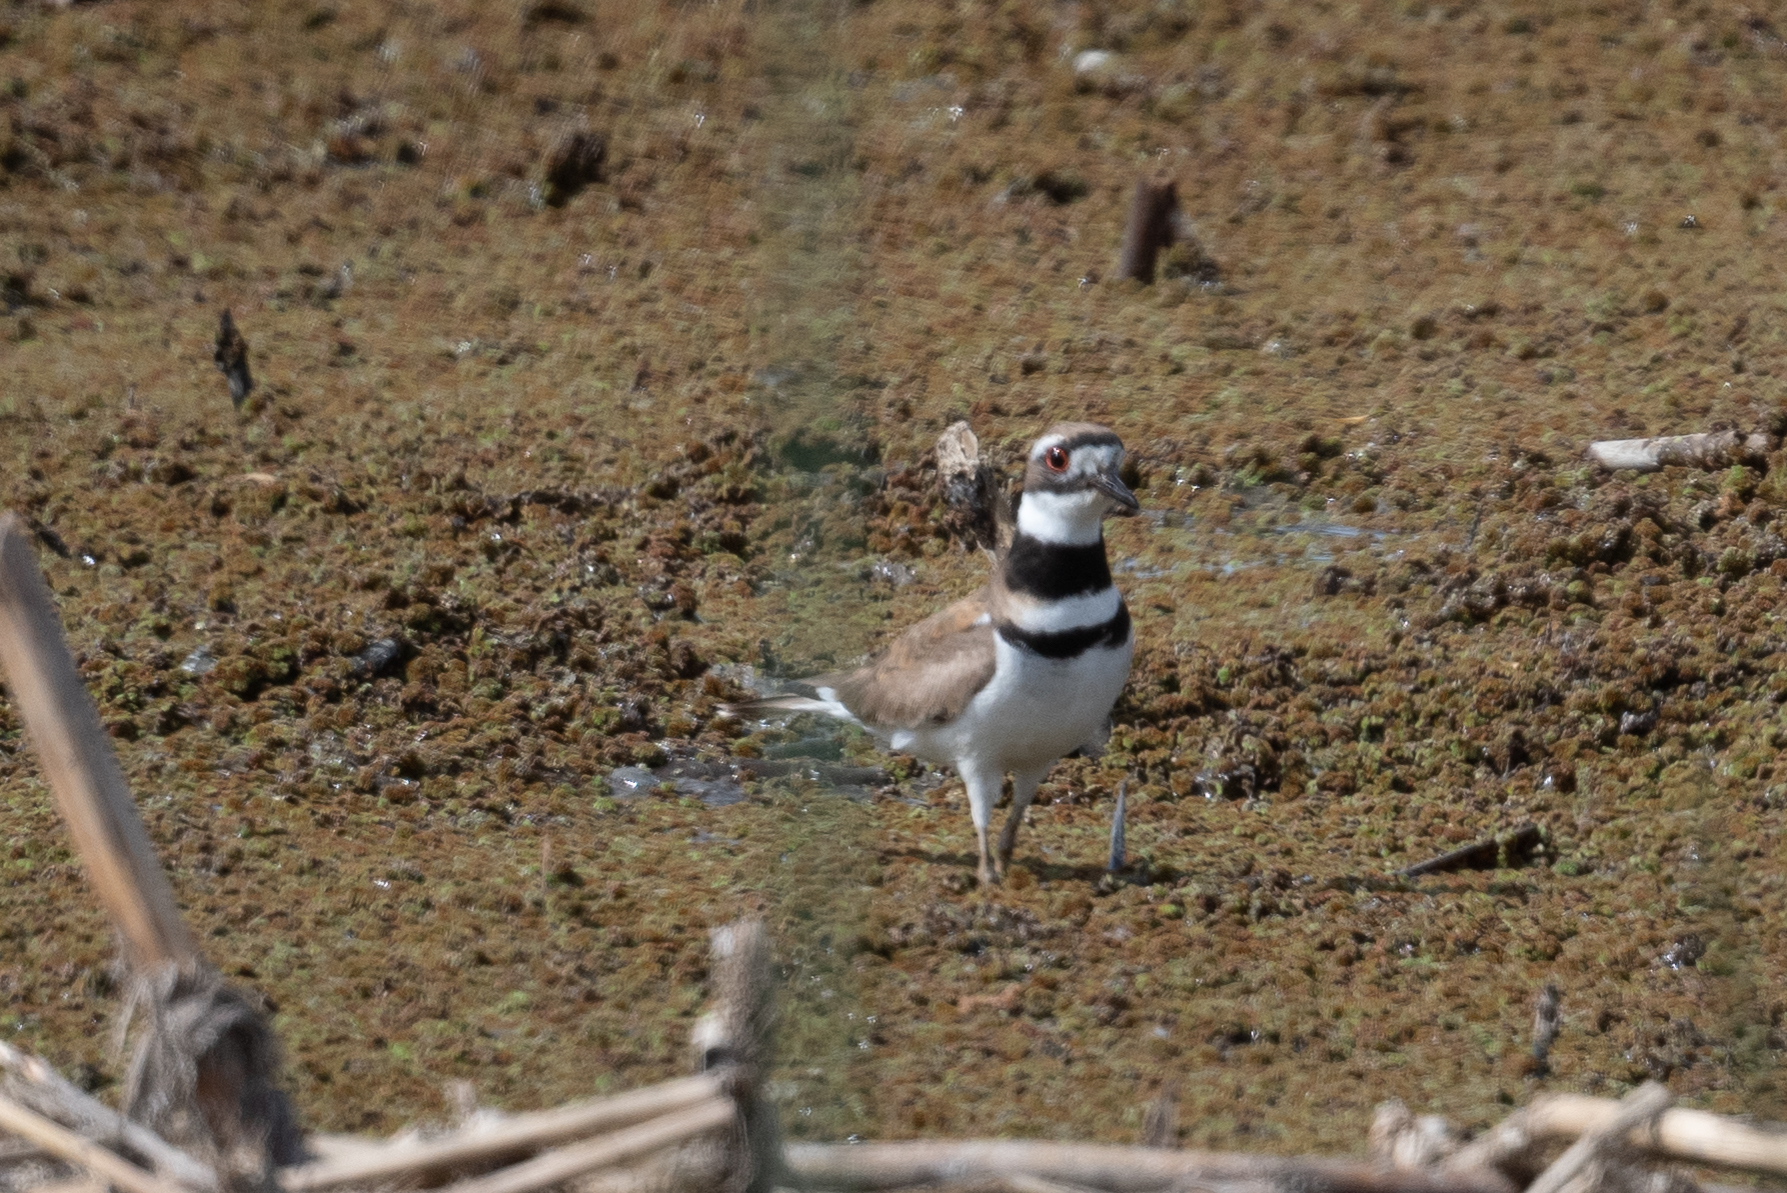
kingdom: Animalia
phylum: Chordata
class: Aves
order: Charadriiformes
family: Charadriidae
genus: Charadrius
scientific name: Charadrius vociferus
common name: Killdeer
